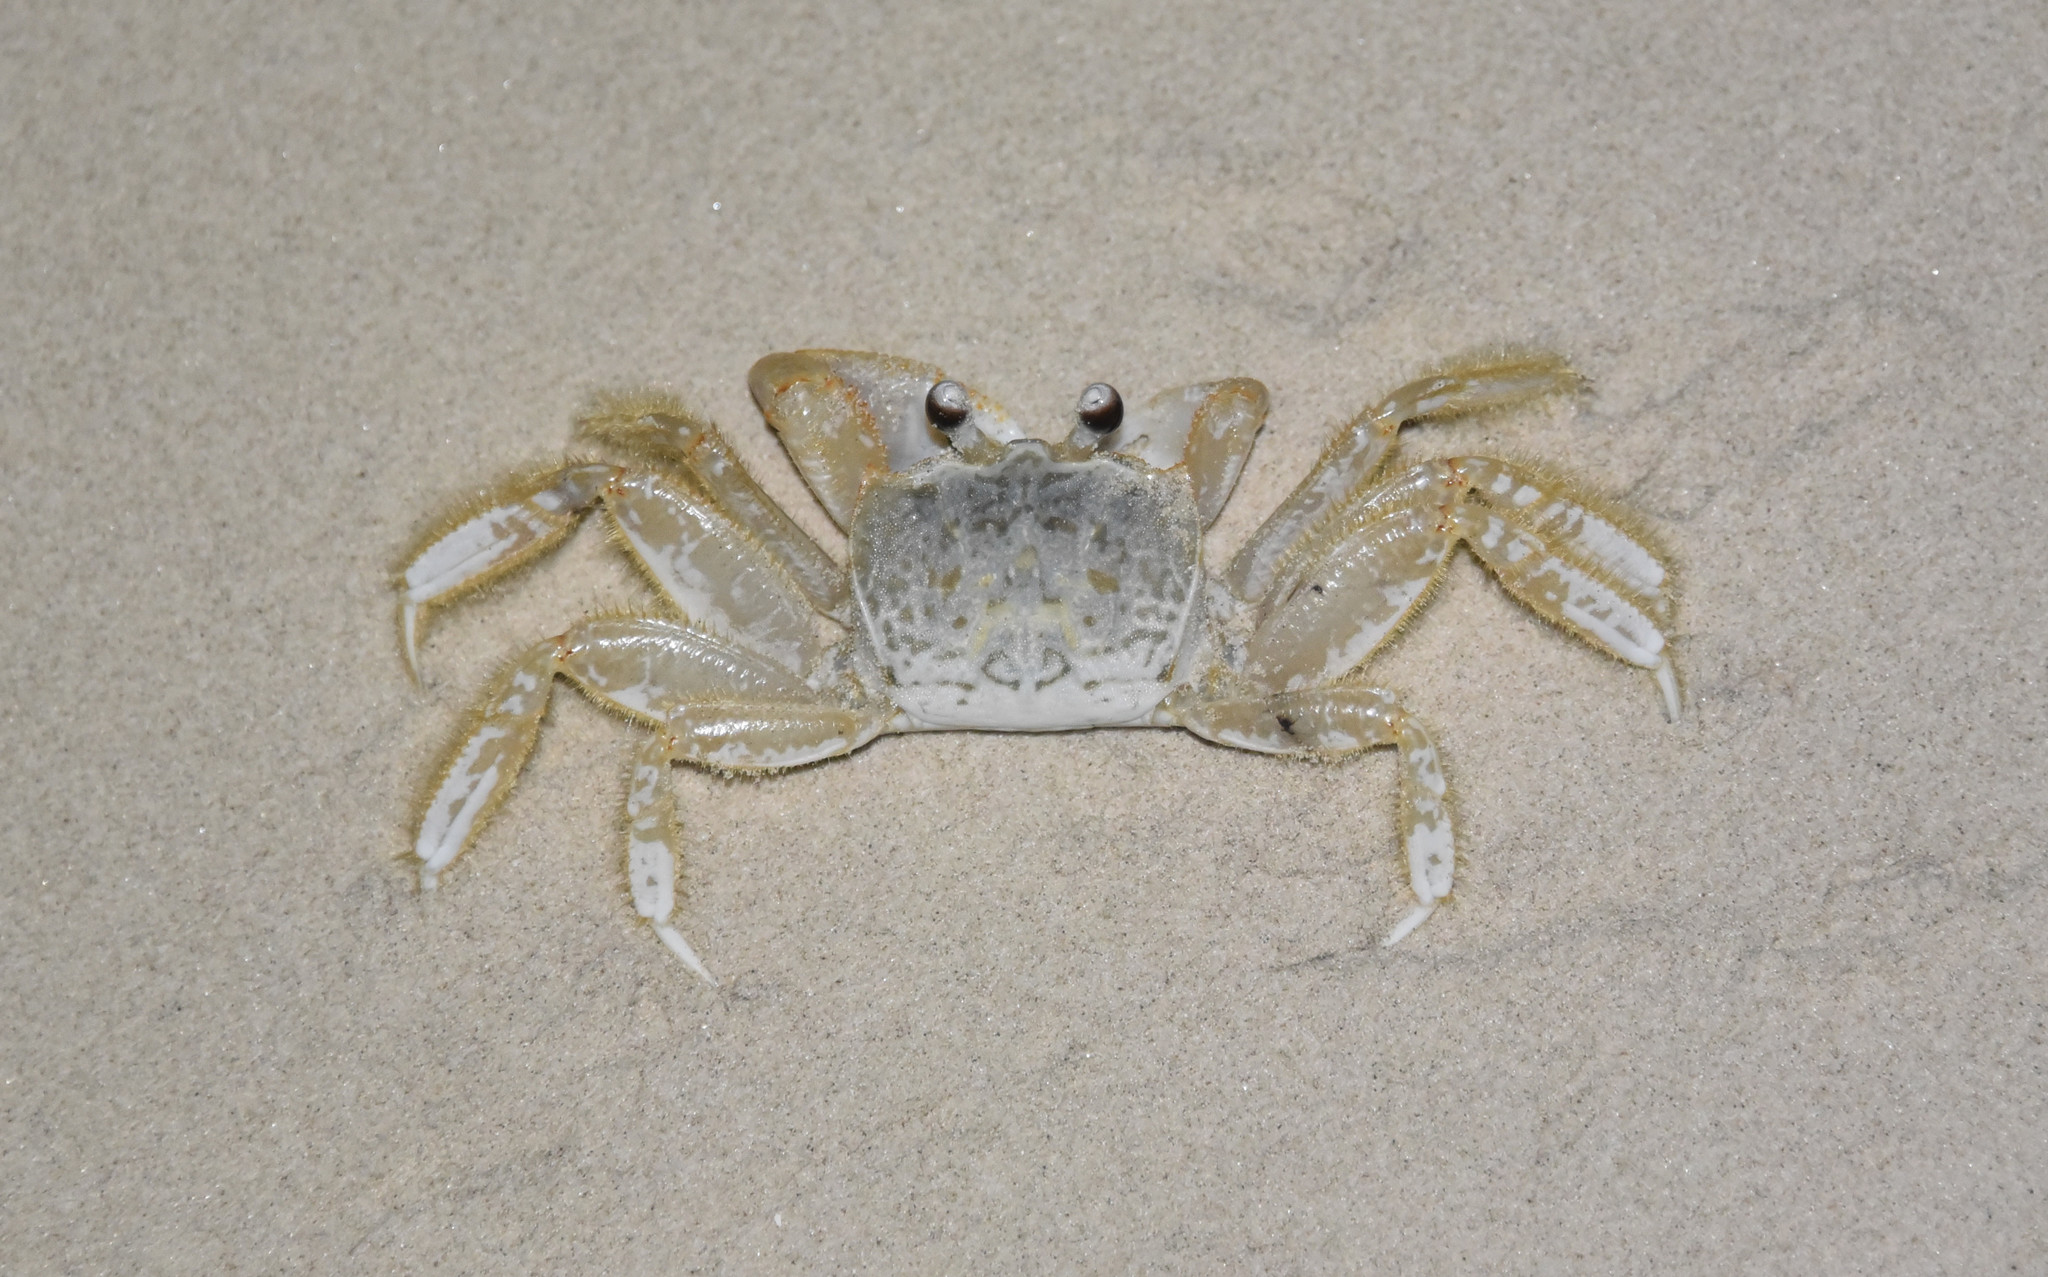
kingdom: Animalia
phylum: Arthropoda
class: Malacostraca
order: Decapoda
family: Ocypodidae
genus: Ocypode
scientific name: Ocypode quadrata
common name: Ghost crab
